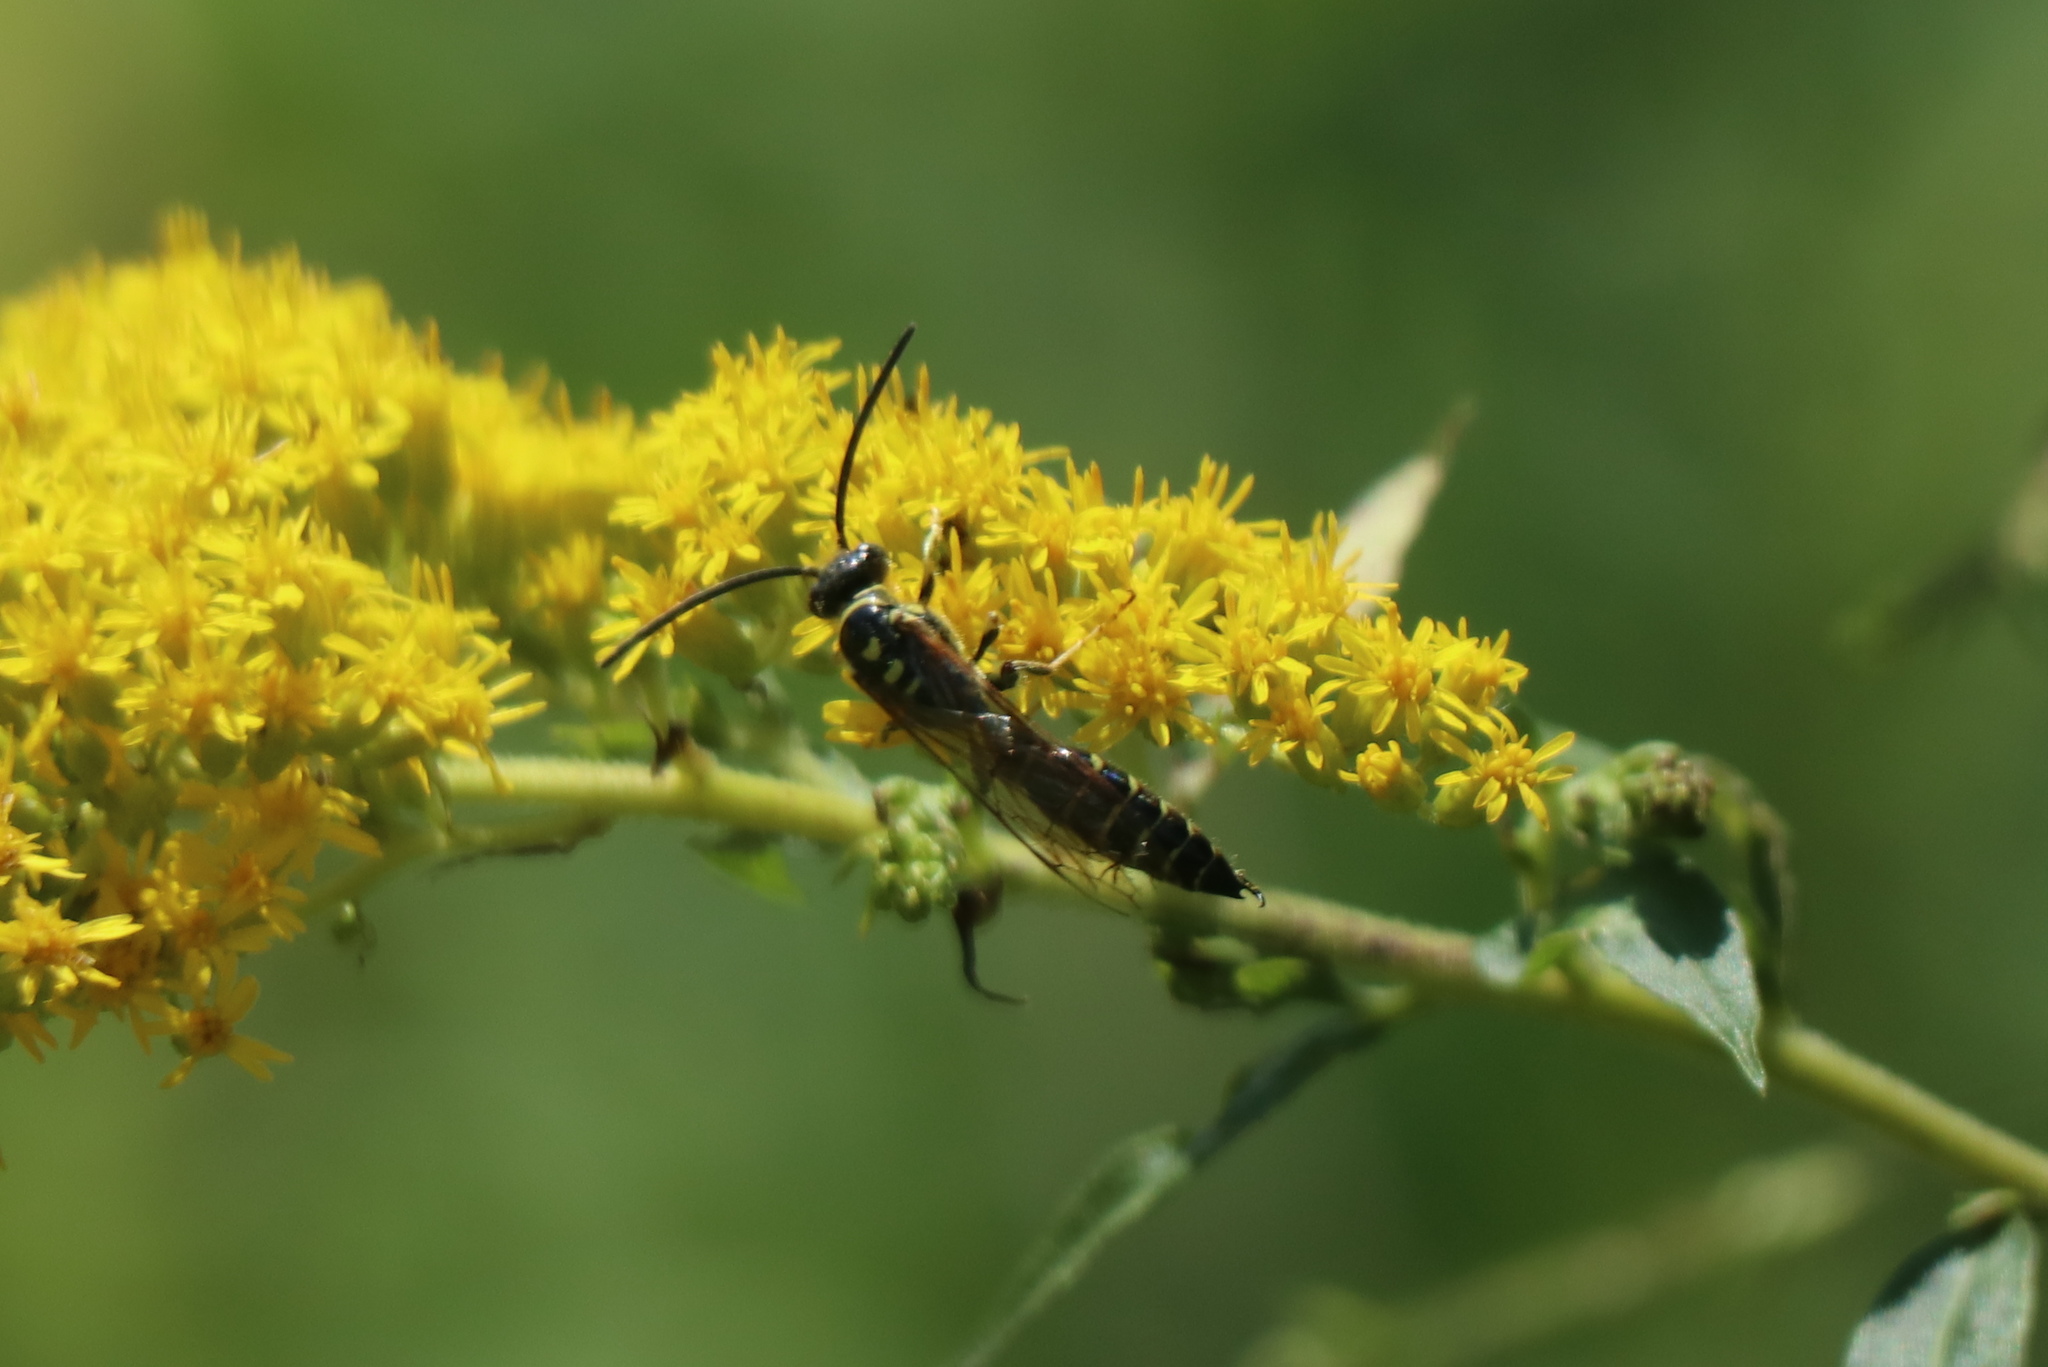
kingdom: Animalia
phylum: Arthropoda
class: Insecta
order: Hymenoptera
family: Tiphiidae
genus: Myzinum
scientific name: Myzinum
